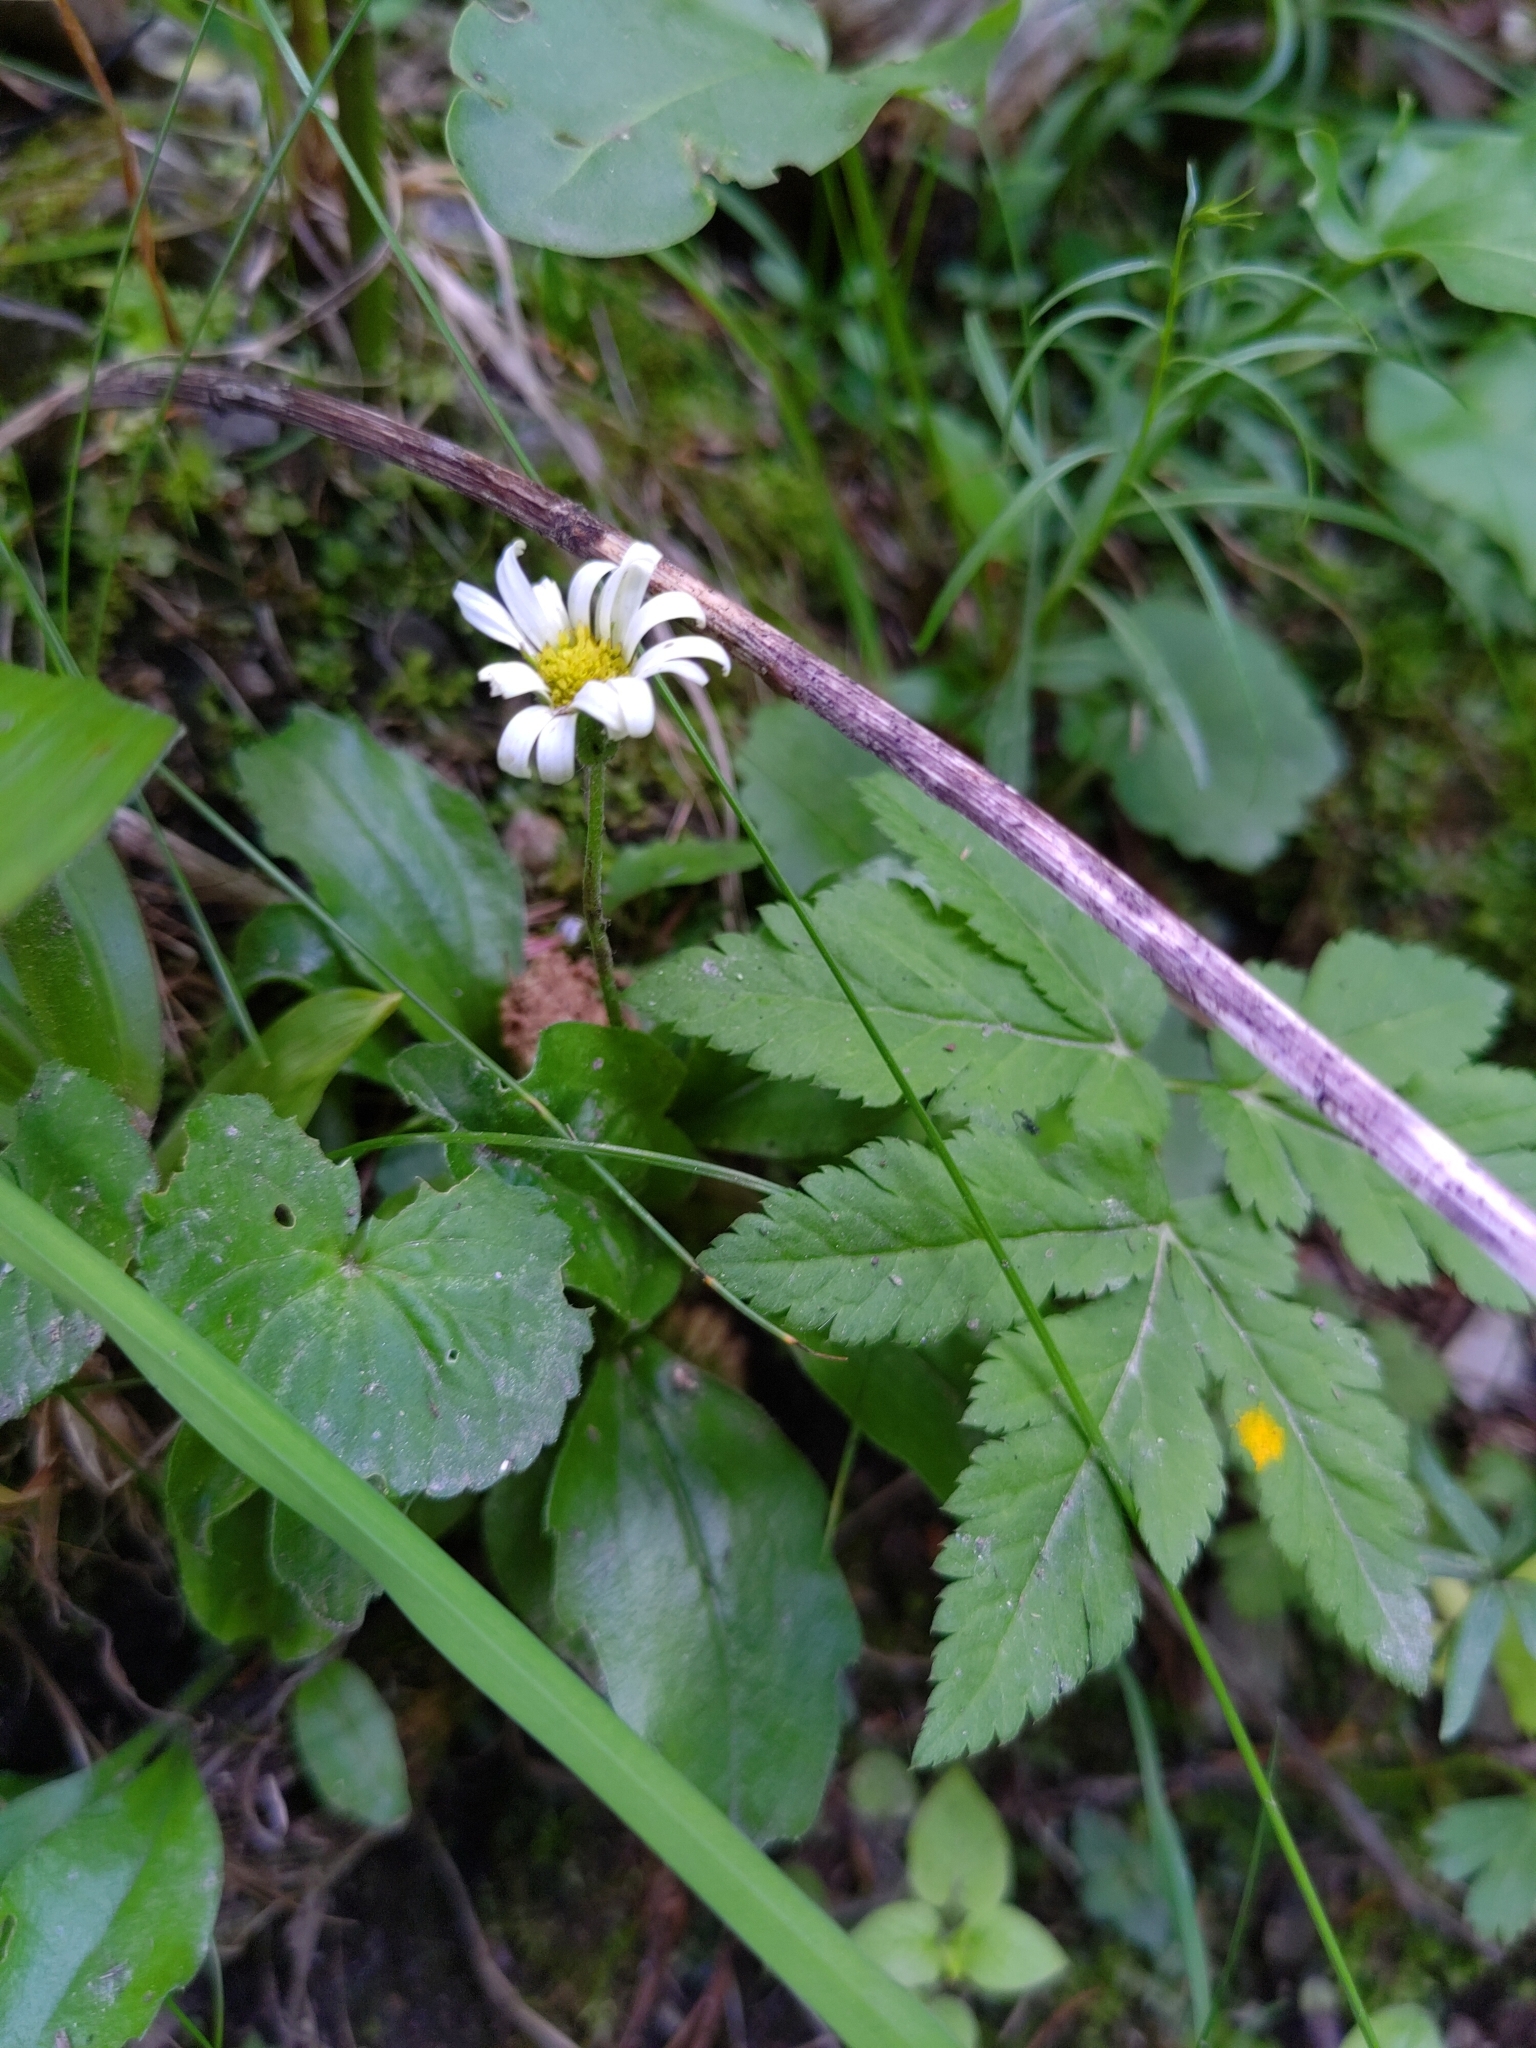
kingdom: Plantae
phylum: Tracheophyta
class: Magnoliopsida
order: Asterales
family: Asteraceae
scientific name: Asteraceae
